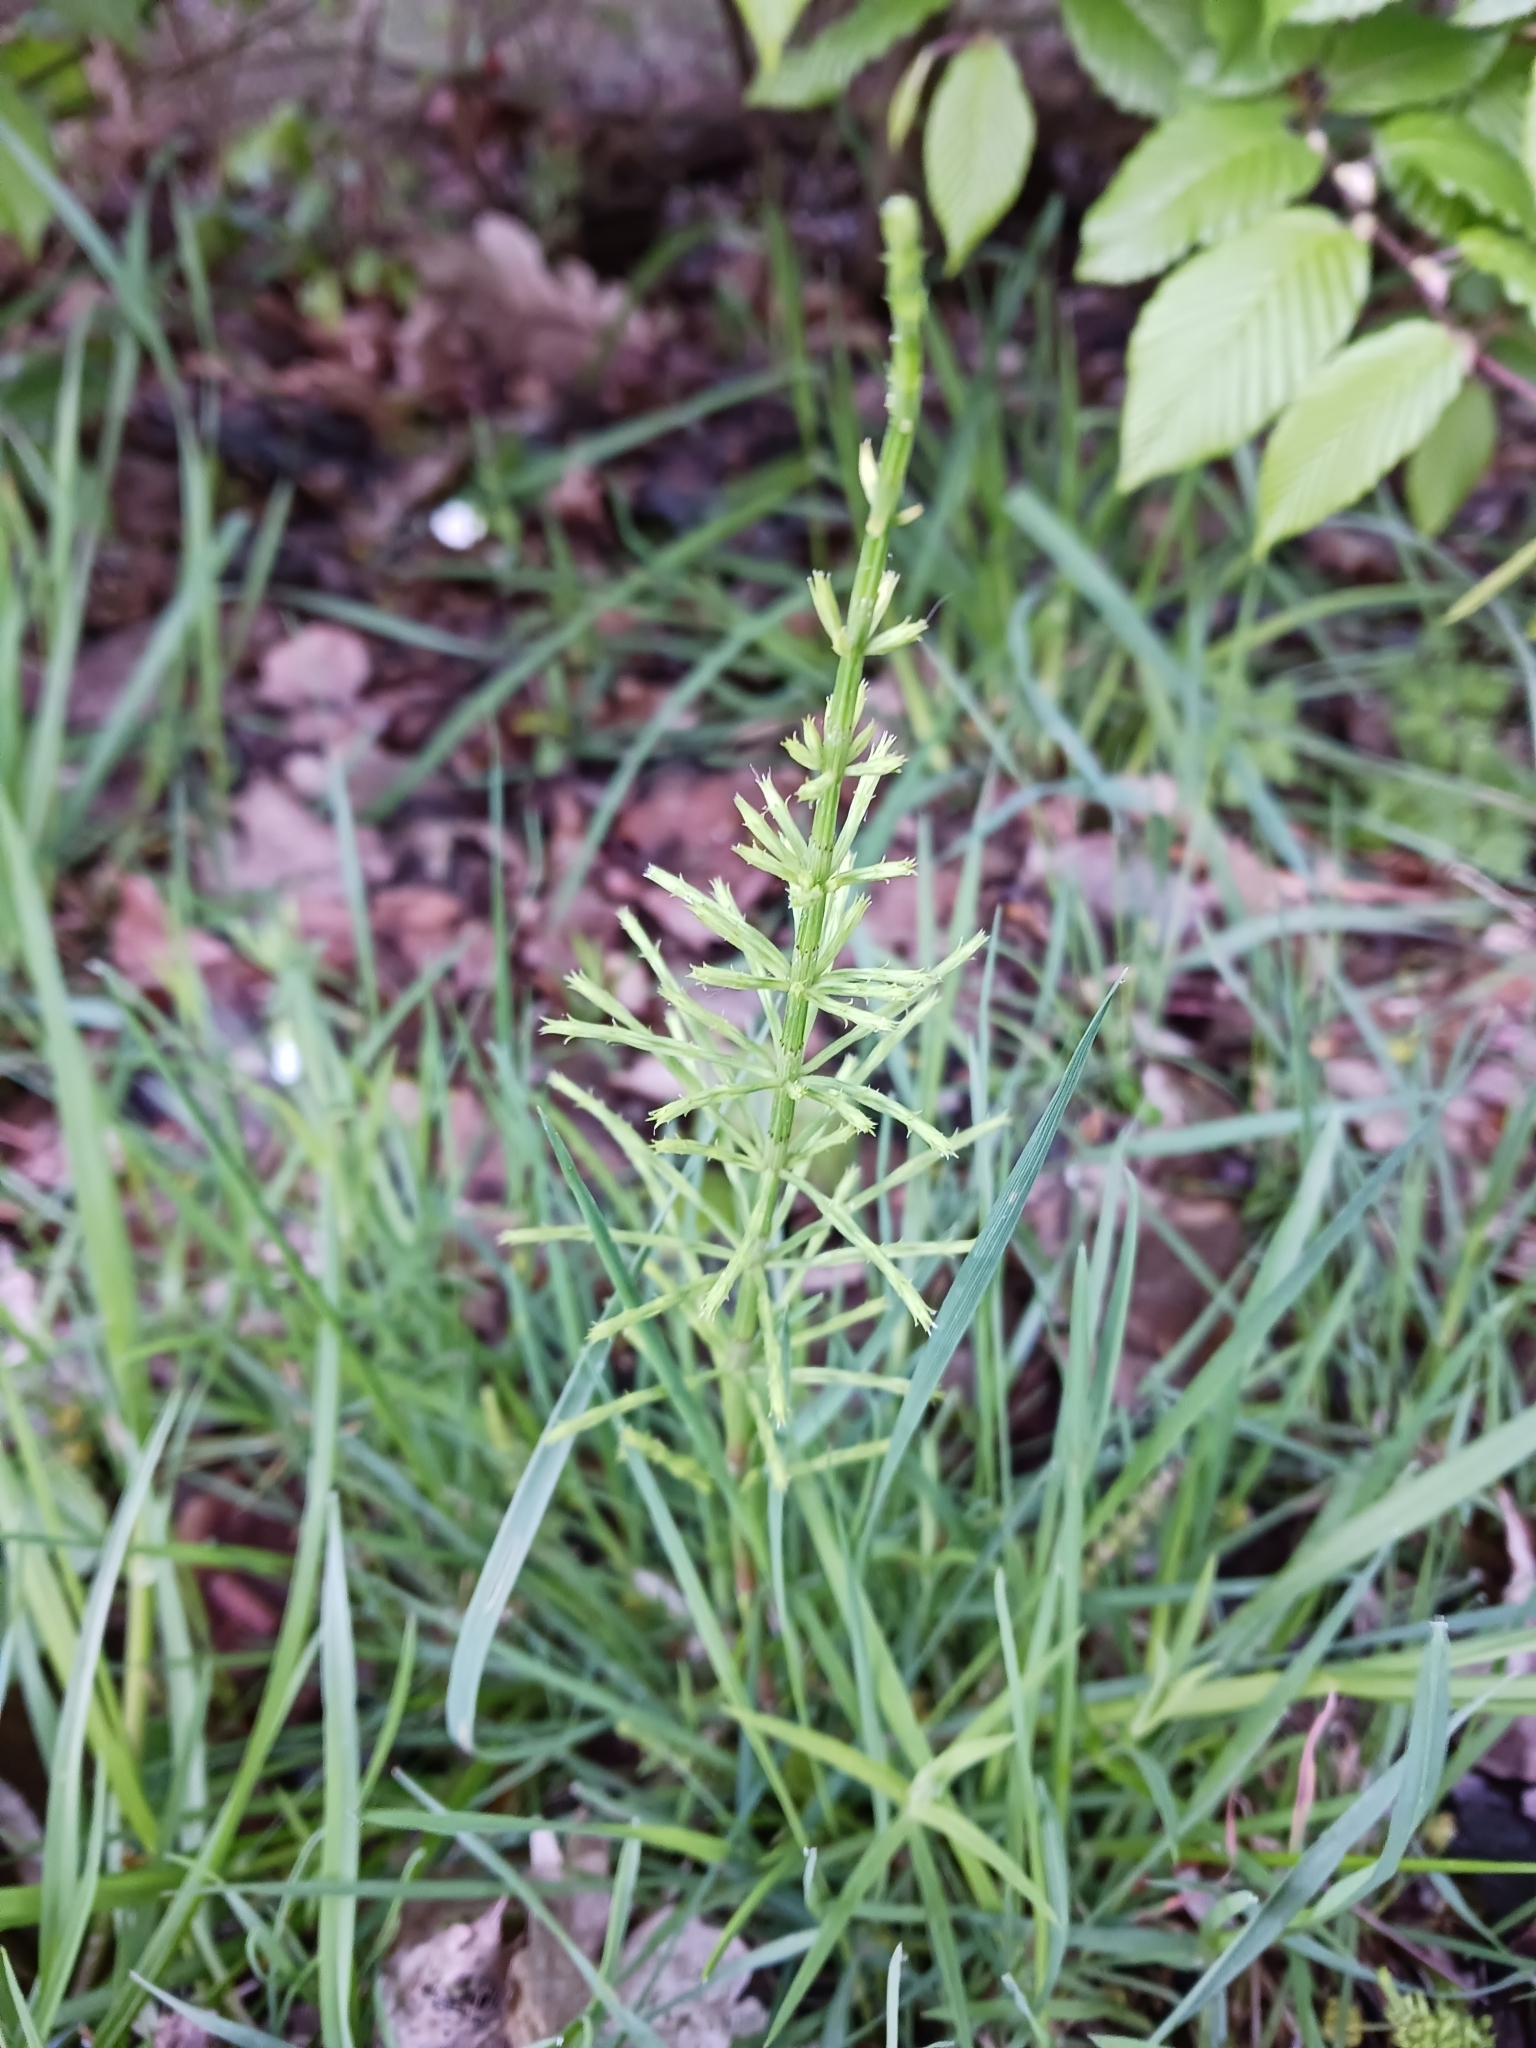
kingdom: Plantae
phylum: Tracheophyta
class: Polypodiopsida
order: Equisetales
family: Equisetaceae
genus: Equisetum
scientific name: Equisetum arvense
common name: Field horsetail
